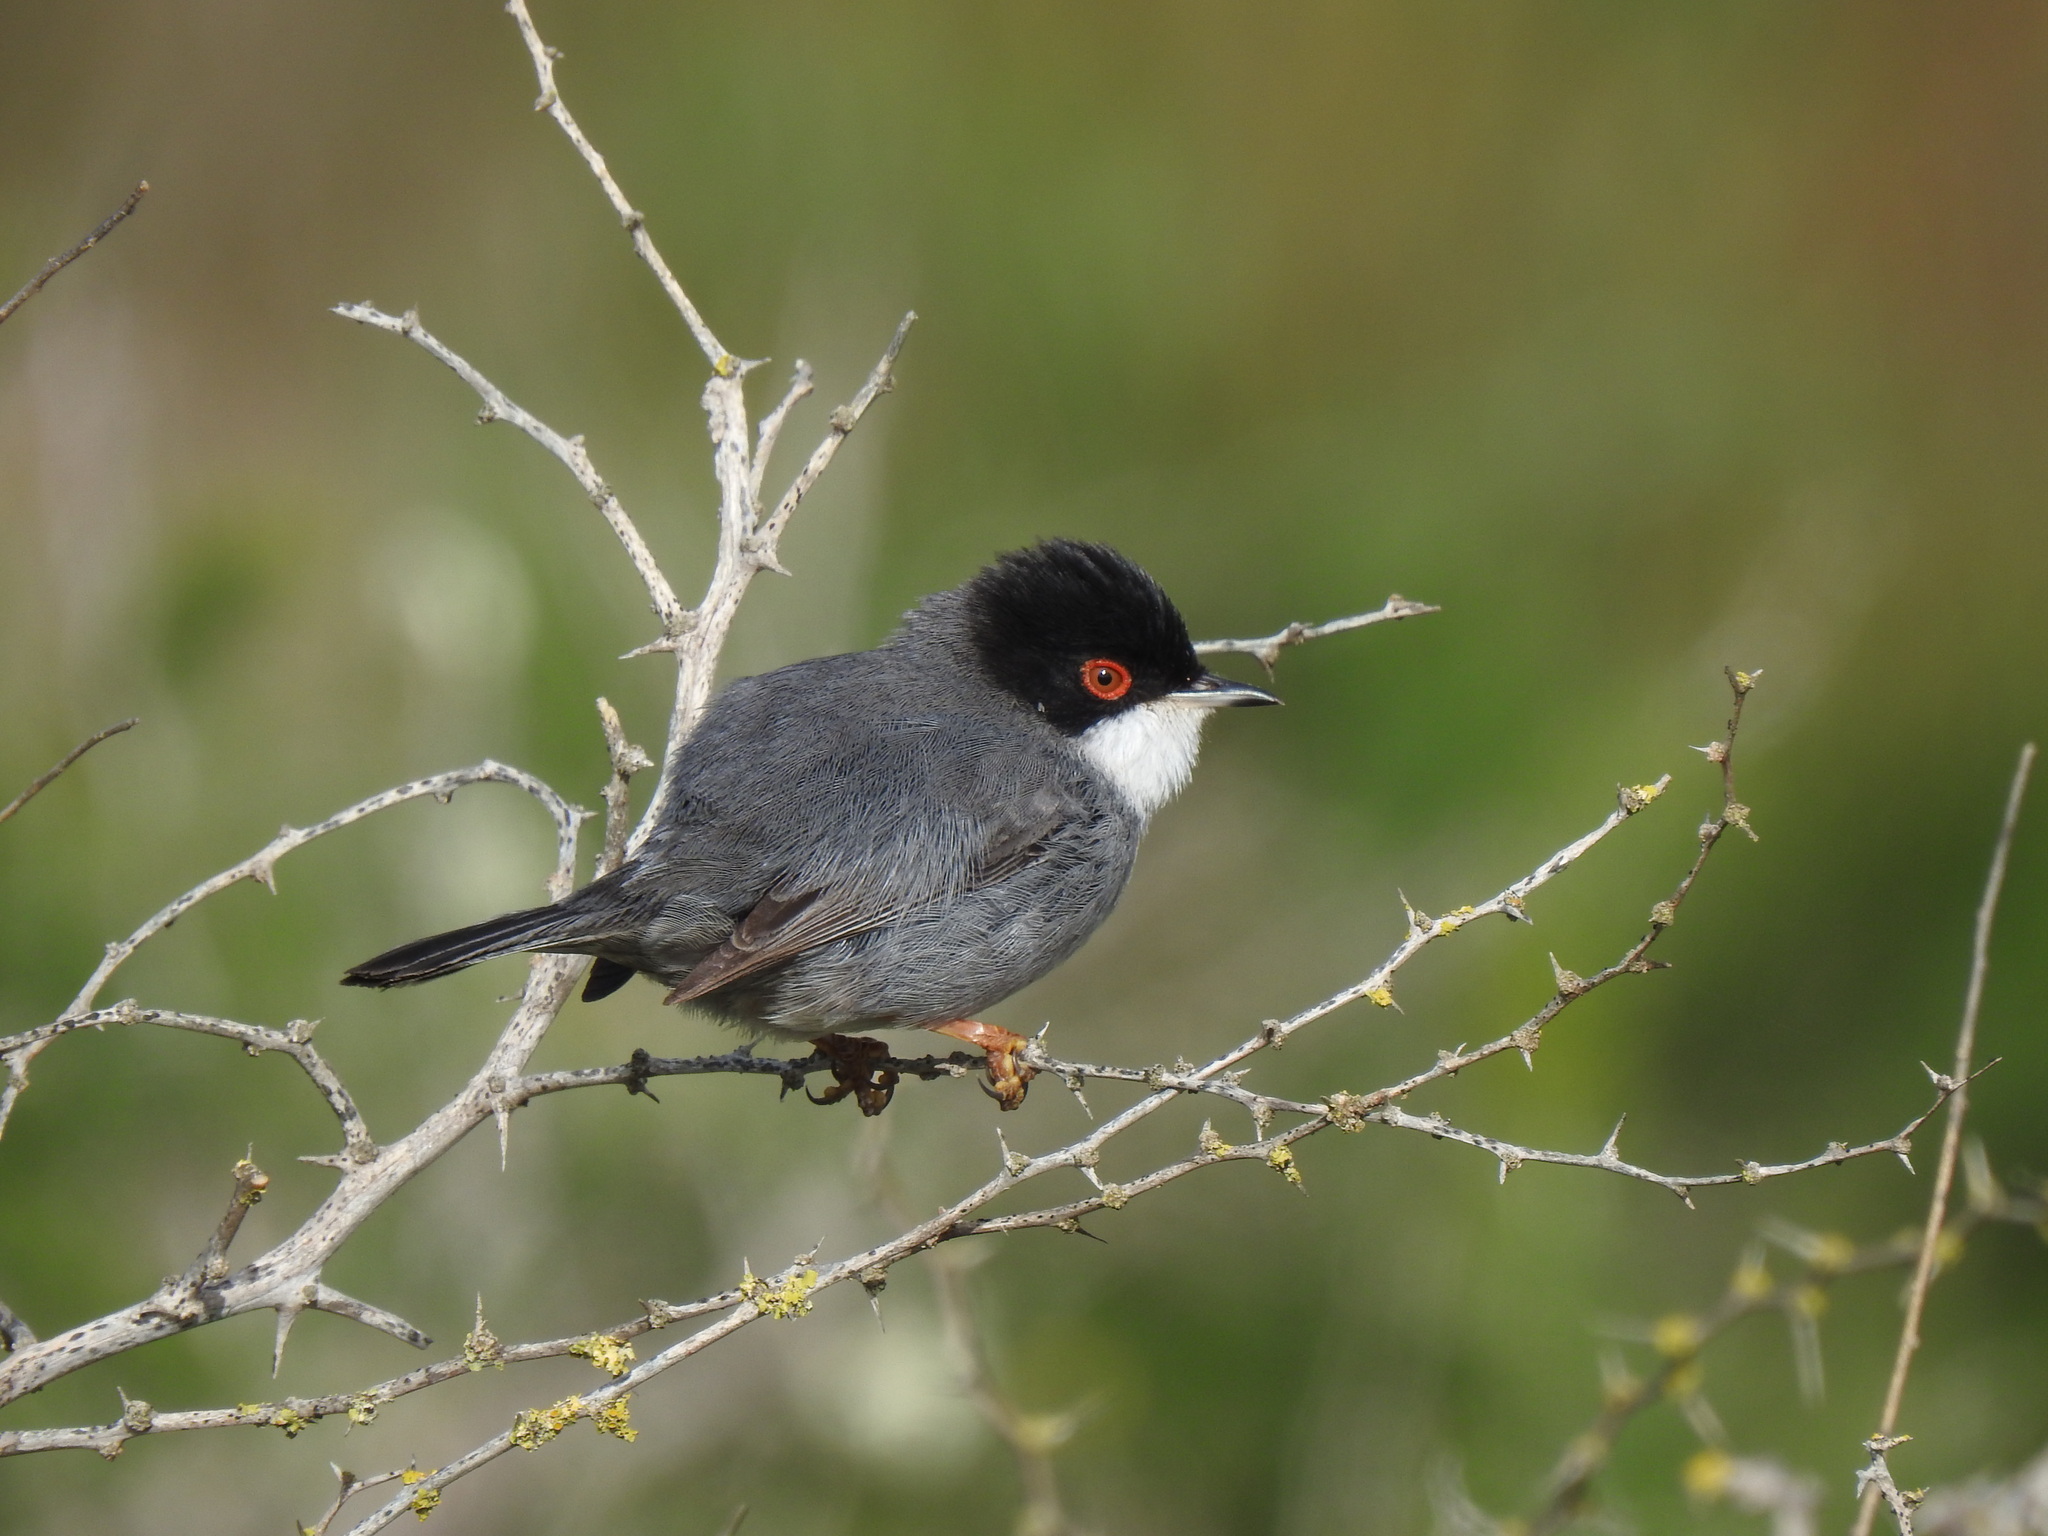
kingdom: Animalia
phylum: Chordata
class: Aves
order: Passeriformes
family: Sylviidae
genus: Curruca
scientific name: Curruca melanocephala
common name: Sardinian warbler
